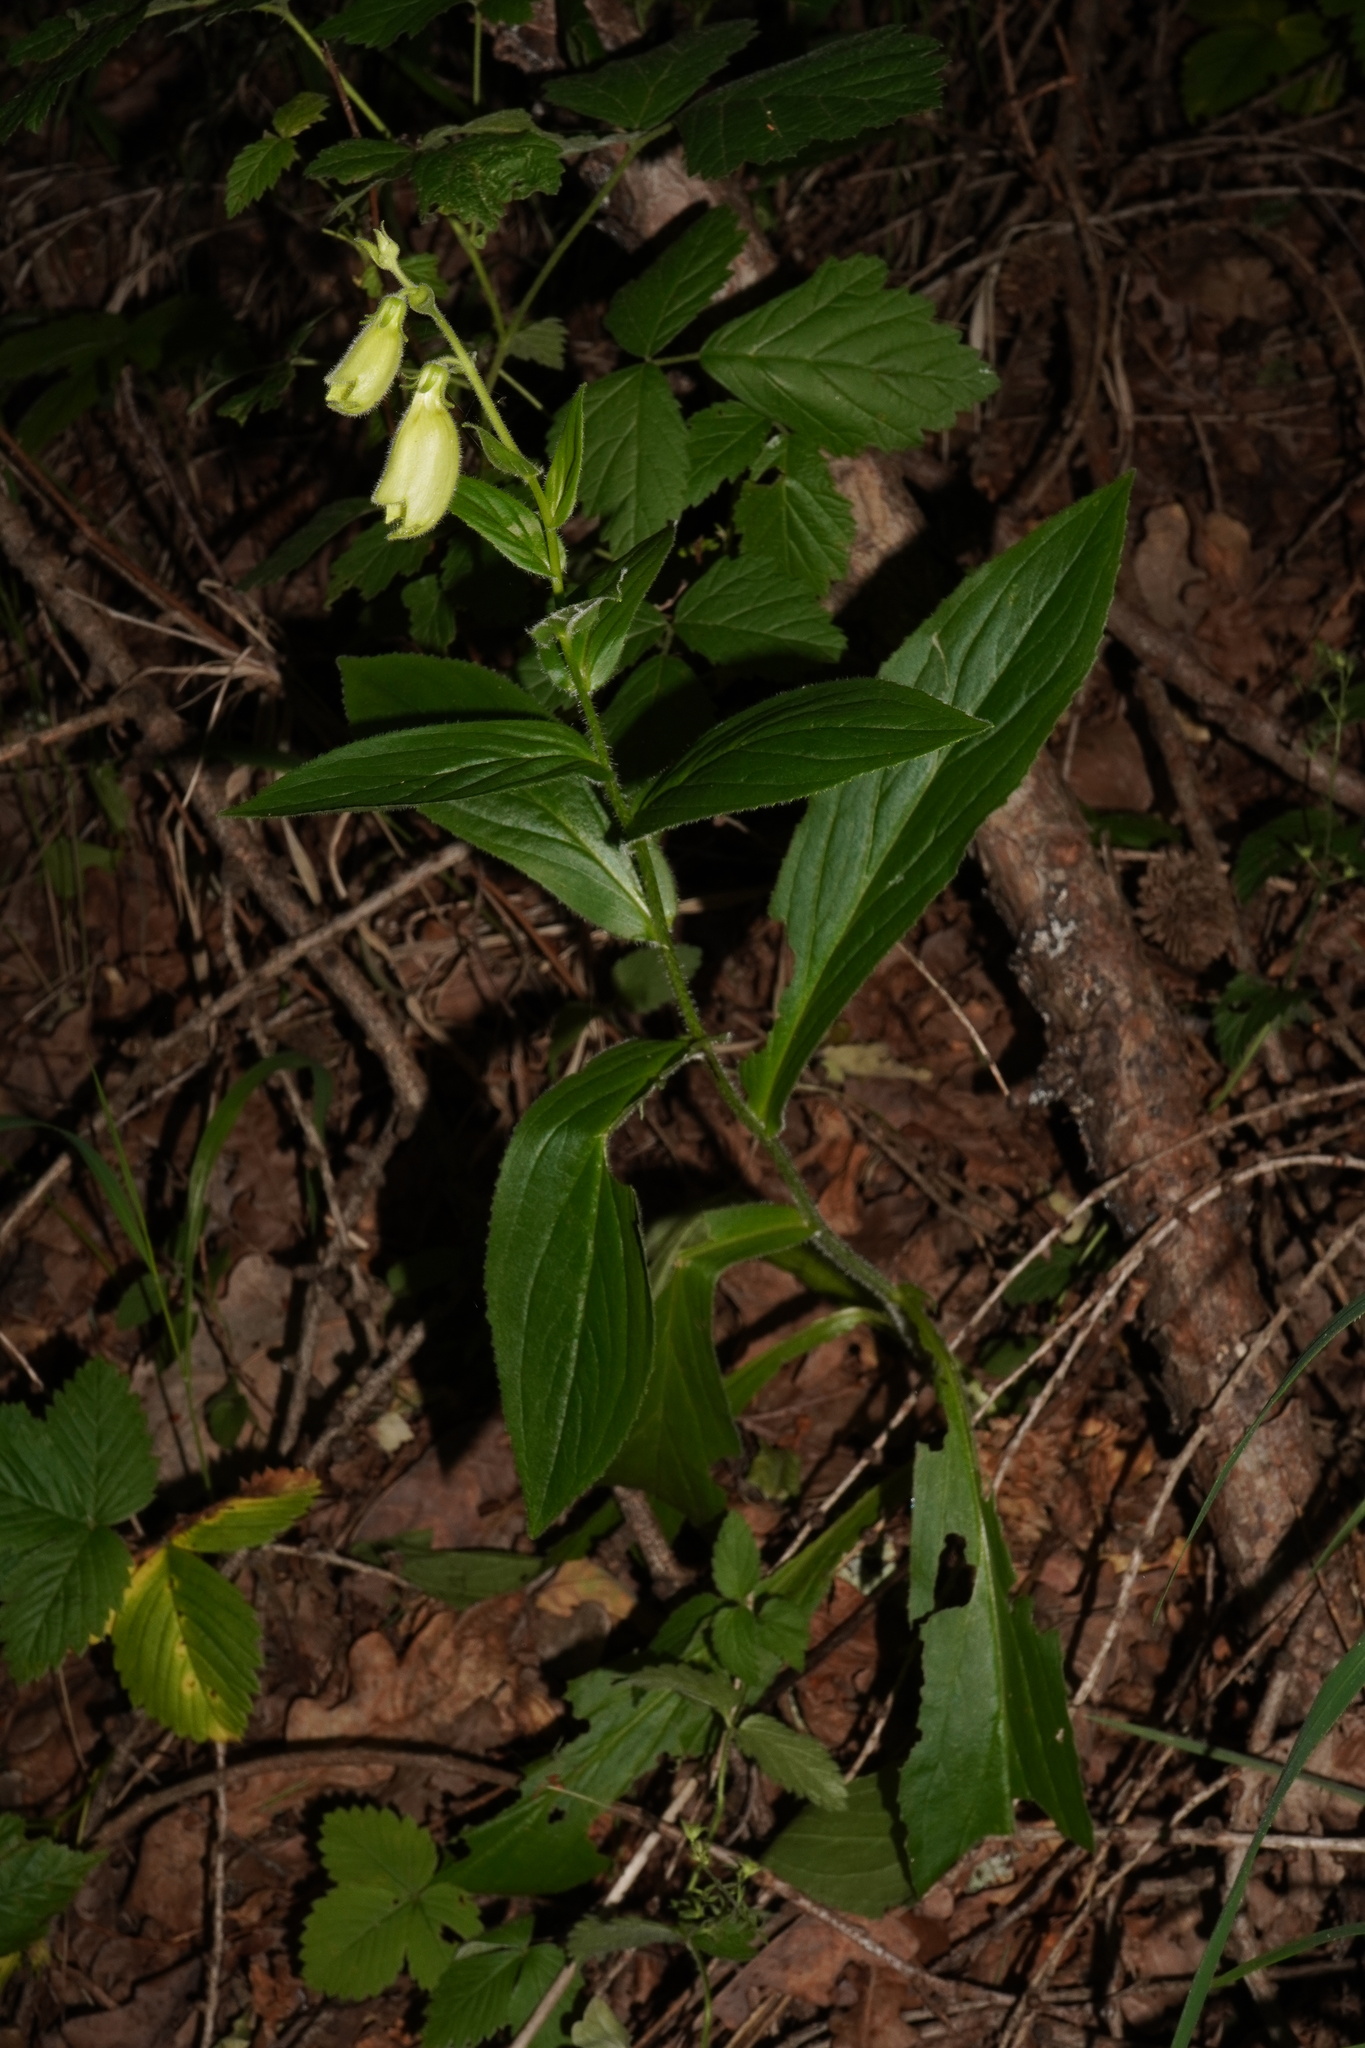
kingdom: Plantae
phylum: Tracheophyta
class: Magnoliopsida
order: Lamiales
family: Plantaginaceae
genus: Digitalis
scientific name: Digitalis grandiflora
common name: Yellow foxglove
